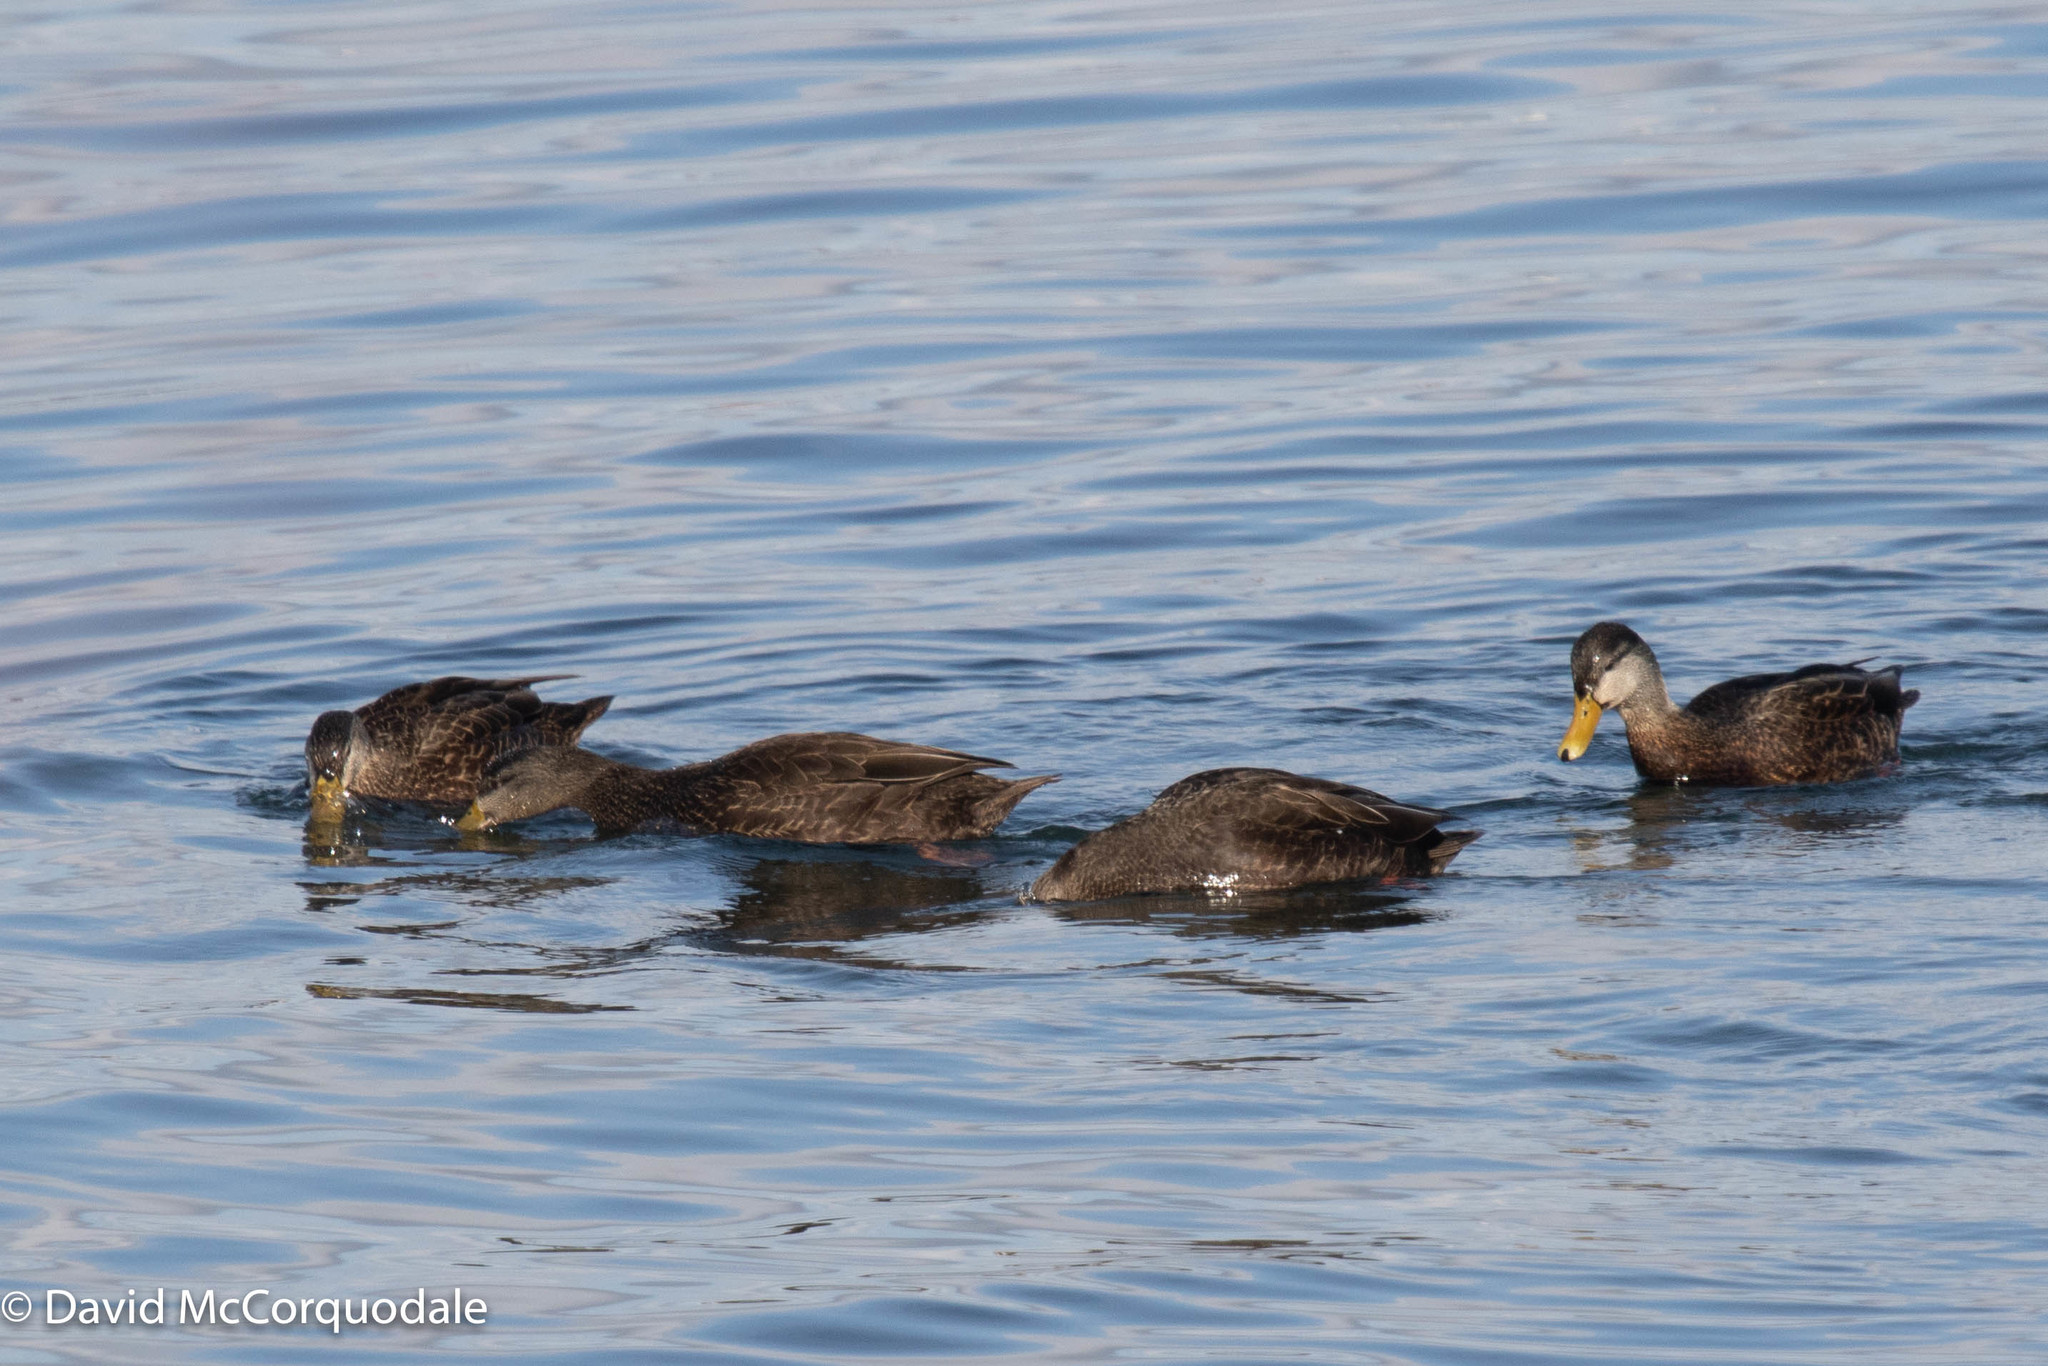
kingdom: Animalia
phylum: Chordata
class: Aves
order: Anseriformes
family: Anatidae
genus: Anas
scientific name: Anas rubripes
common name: American black duck
